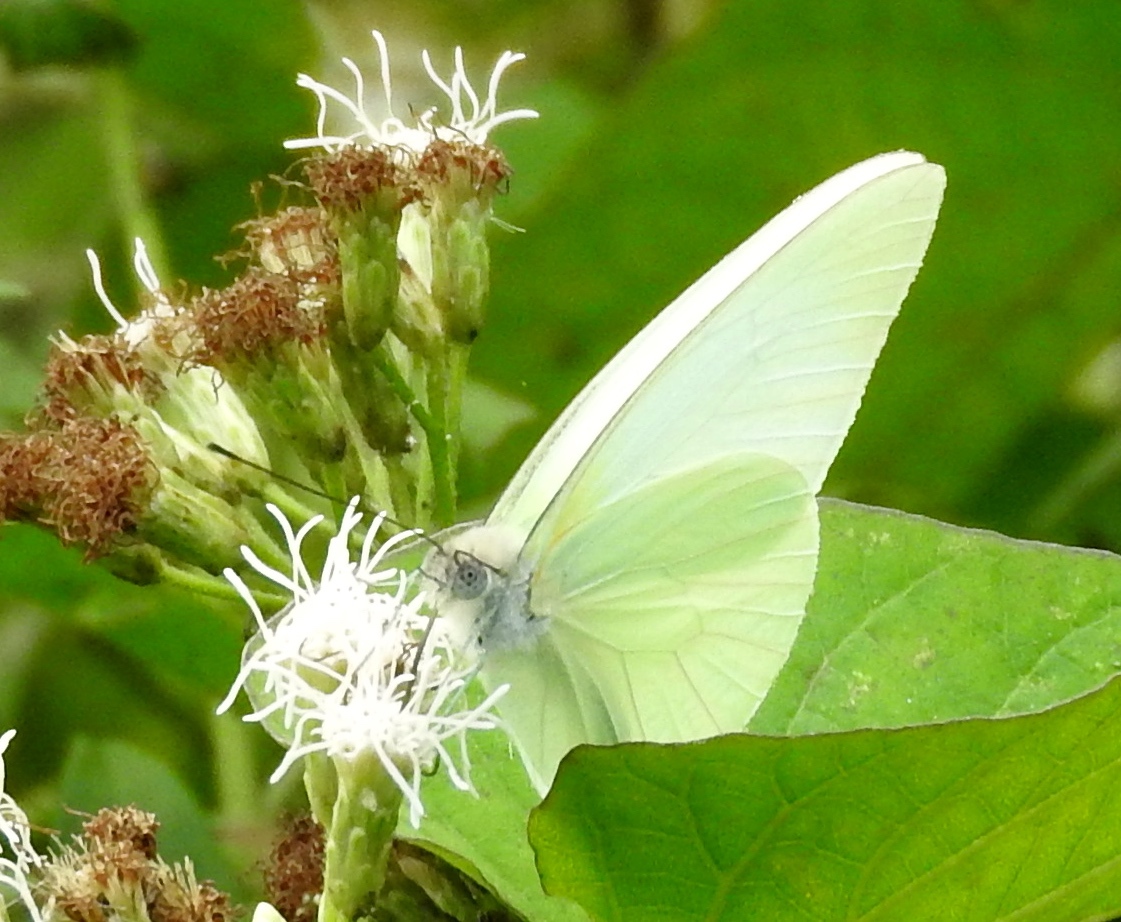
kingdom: Animalia
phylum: Arthropoda
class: Insecta
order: Lepidoptera
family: Pieridae
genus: Glutophrissa
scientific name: Glutophrissa drusilla
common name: Florida white
